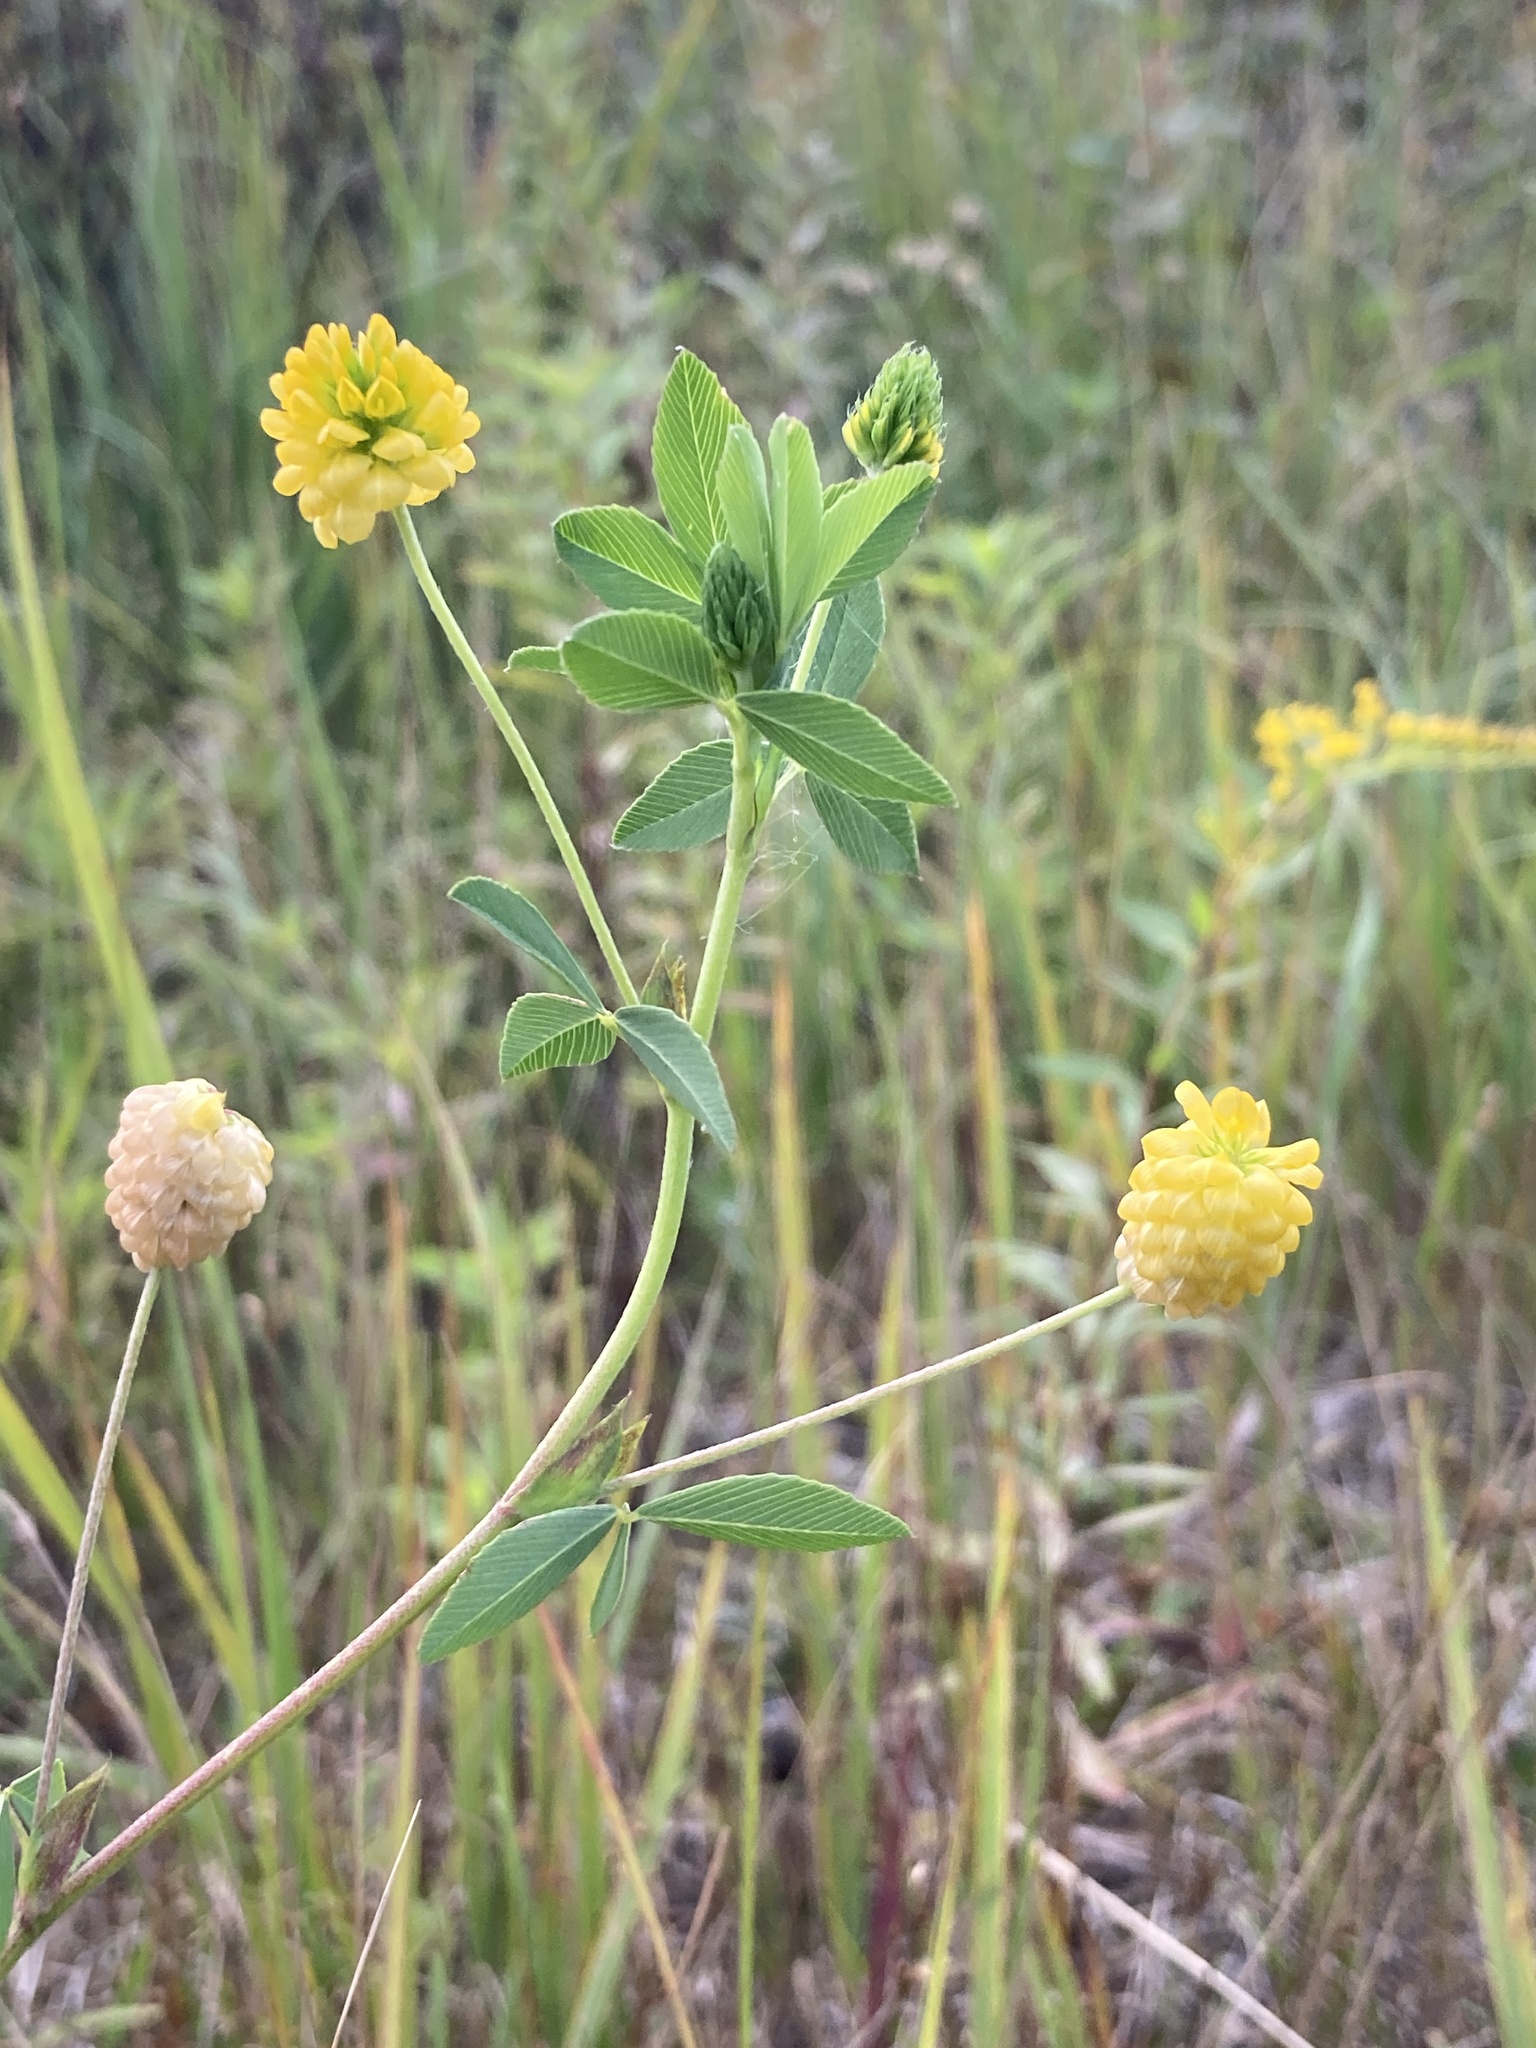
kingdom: Plantae
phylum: Tracheophyta
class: Magnoliopsida
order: Fabales
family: Fabaceae
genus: Trifolium
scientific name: Trifolium aureum
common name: Golden clover
